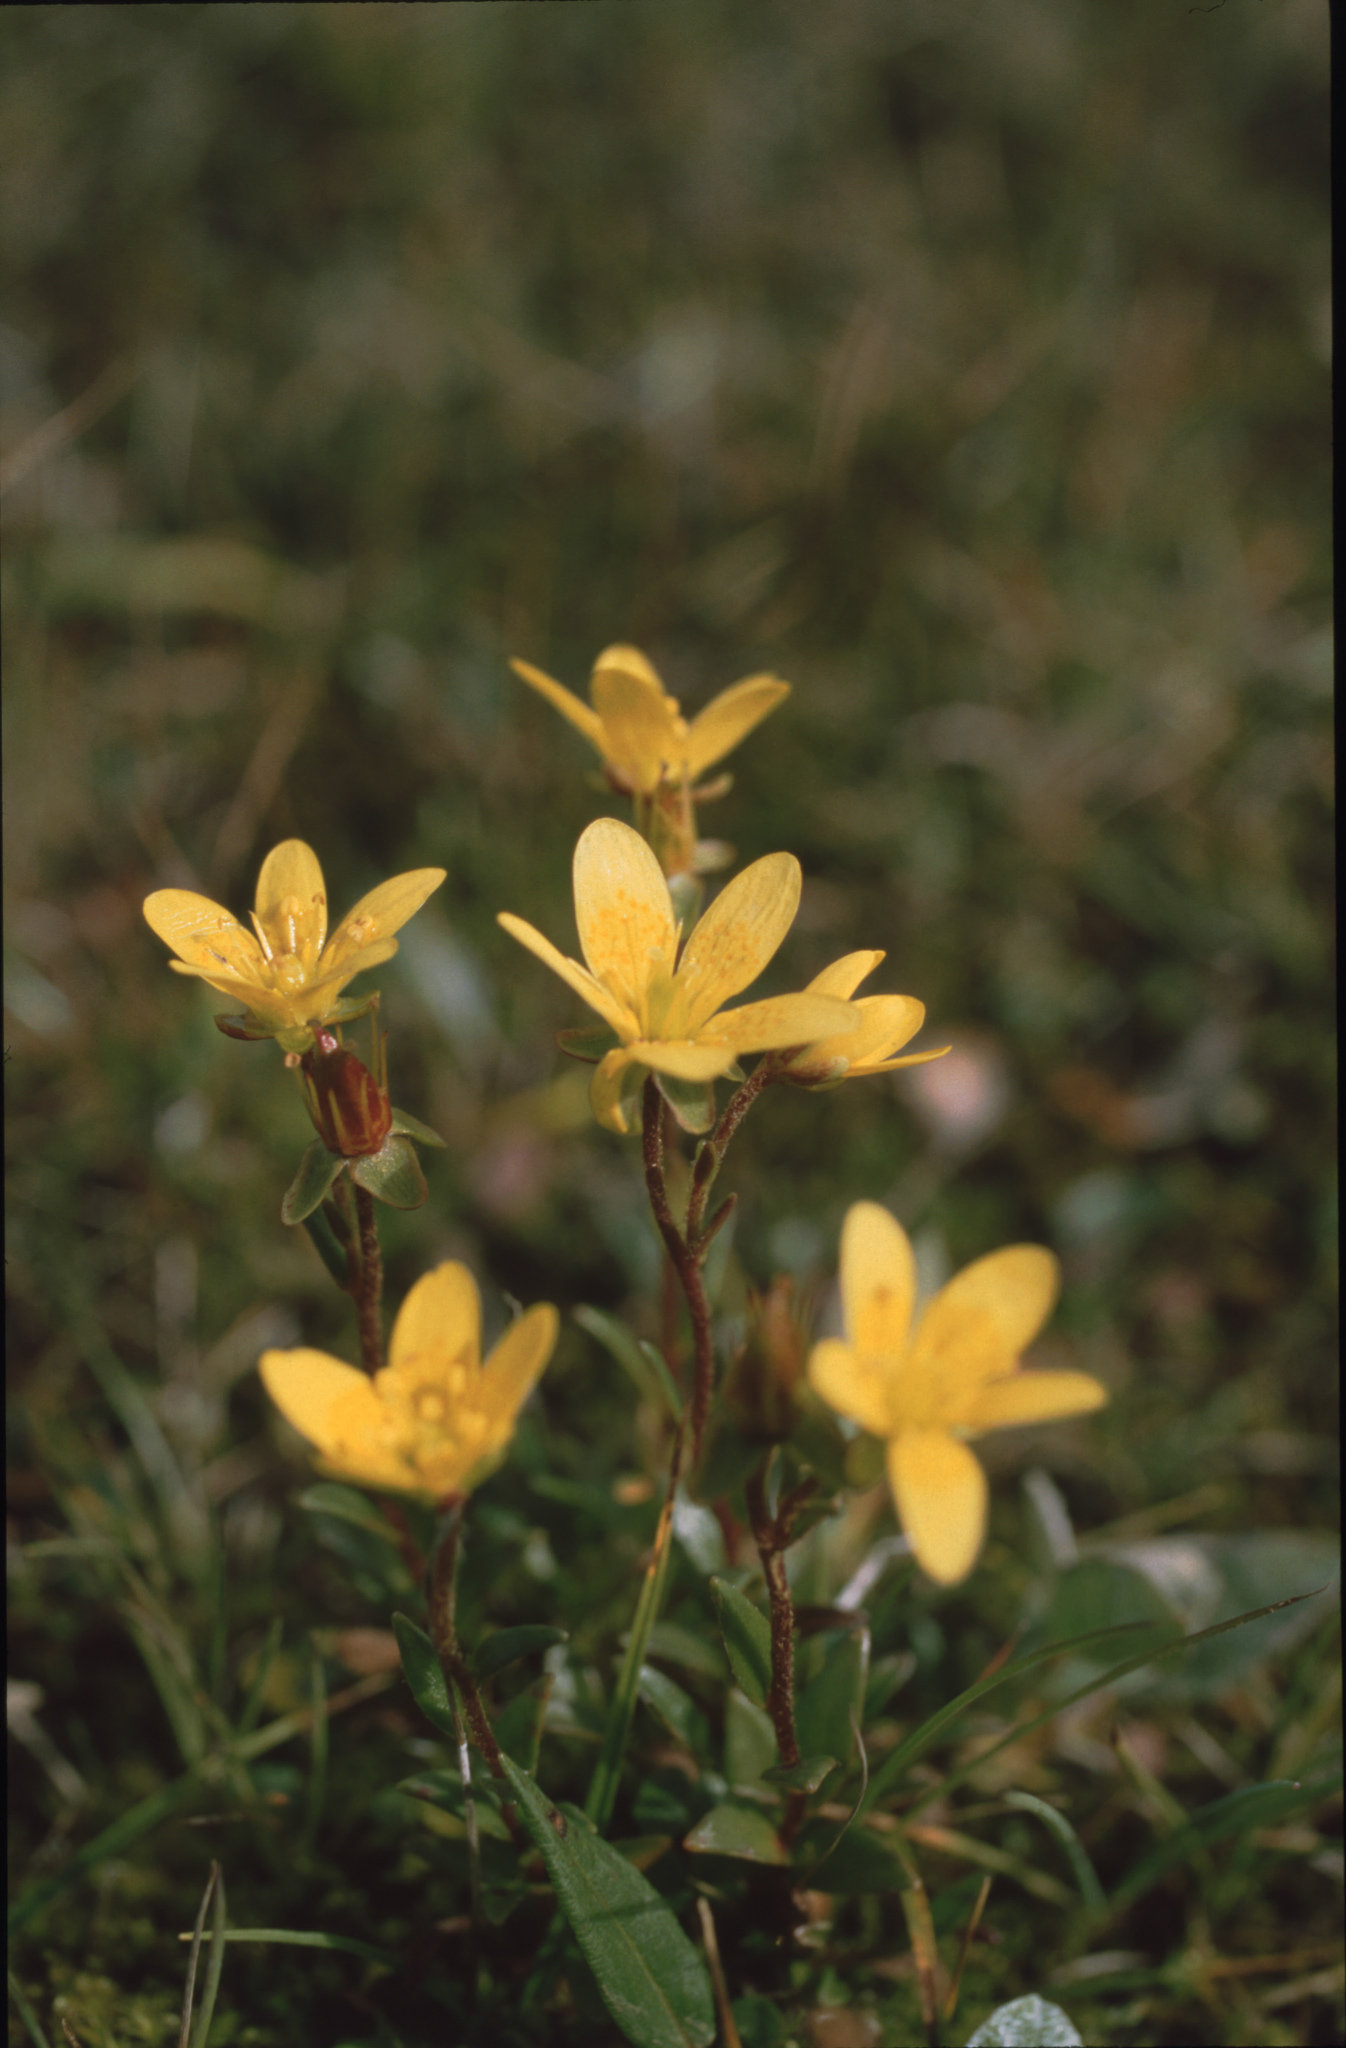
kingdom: Plantae
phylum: Tracheophyta
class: Magnoliopsida
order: Saxifragales
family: Saxifragaceae
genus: Saxifraga
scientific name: Saxifraga hirculus
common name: Yellow marsh saxifrage
